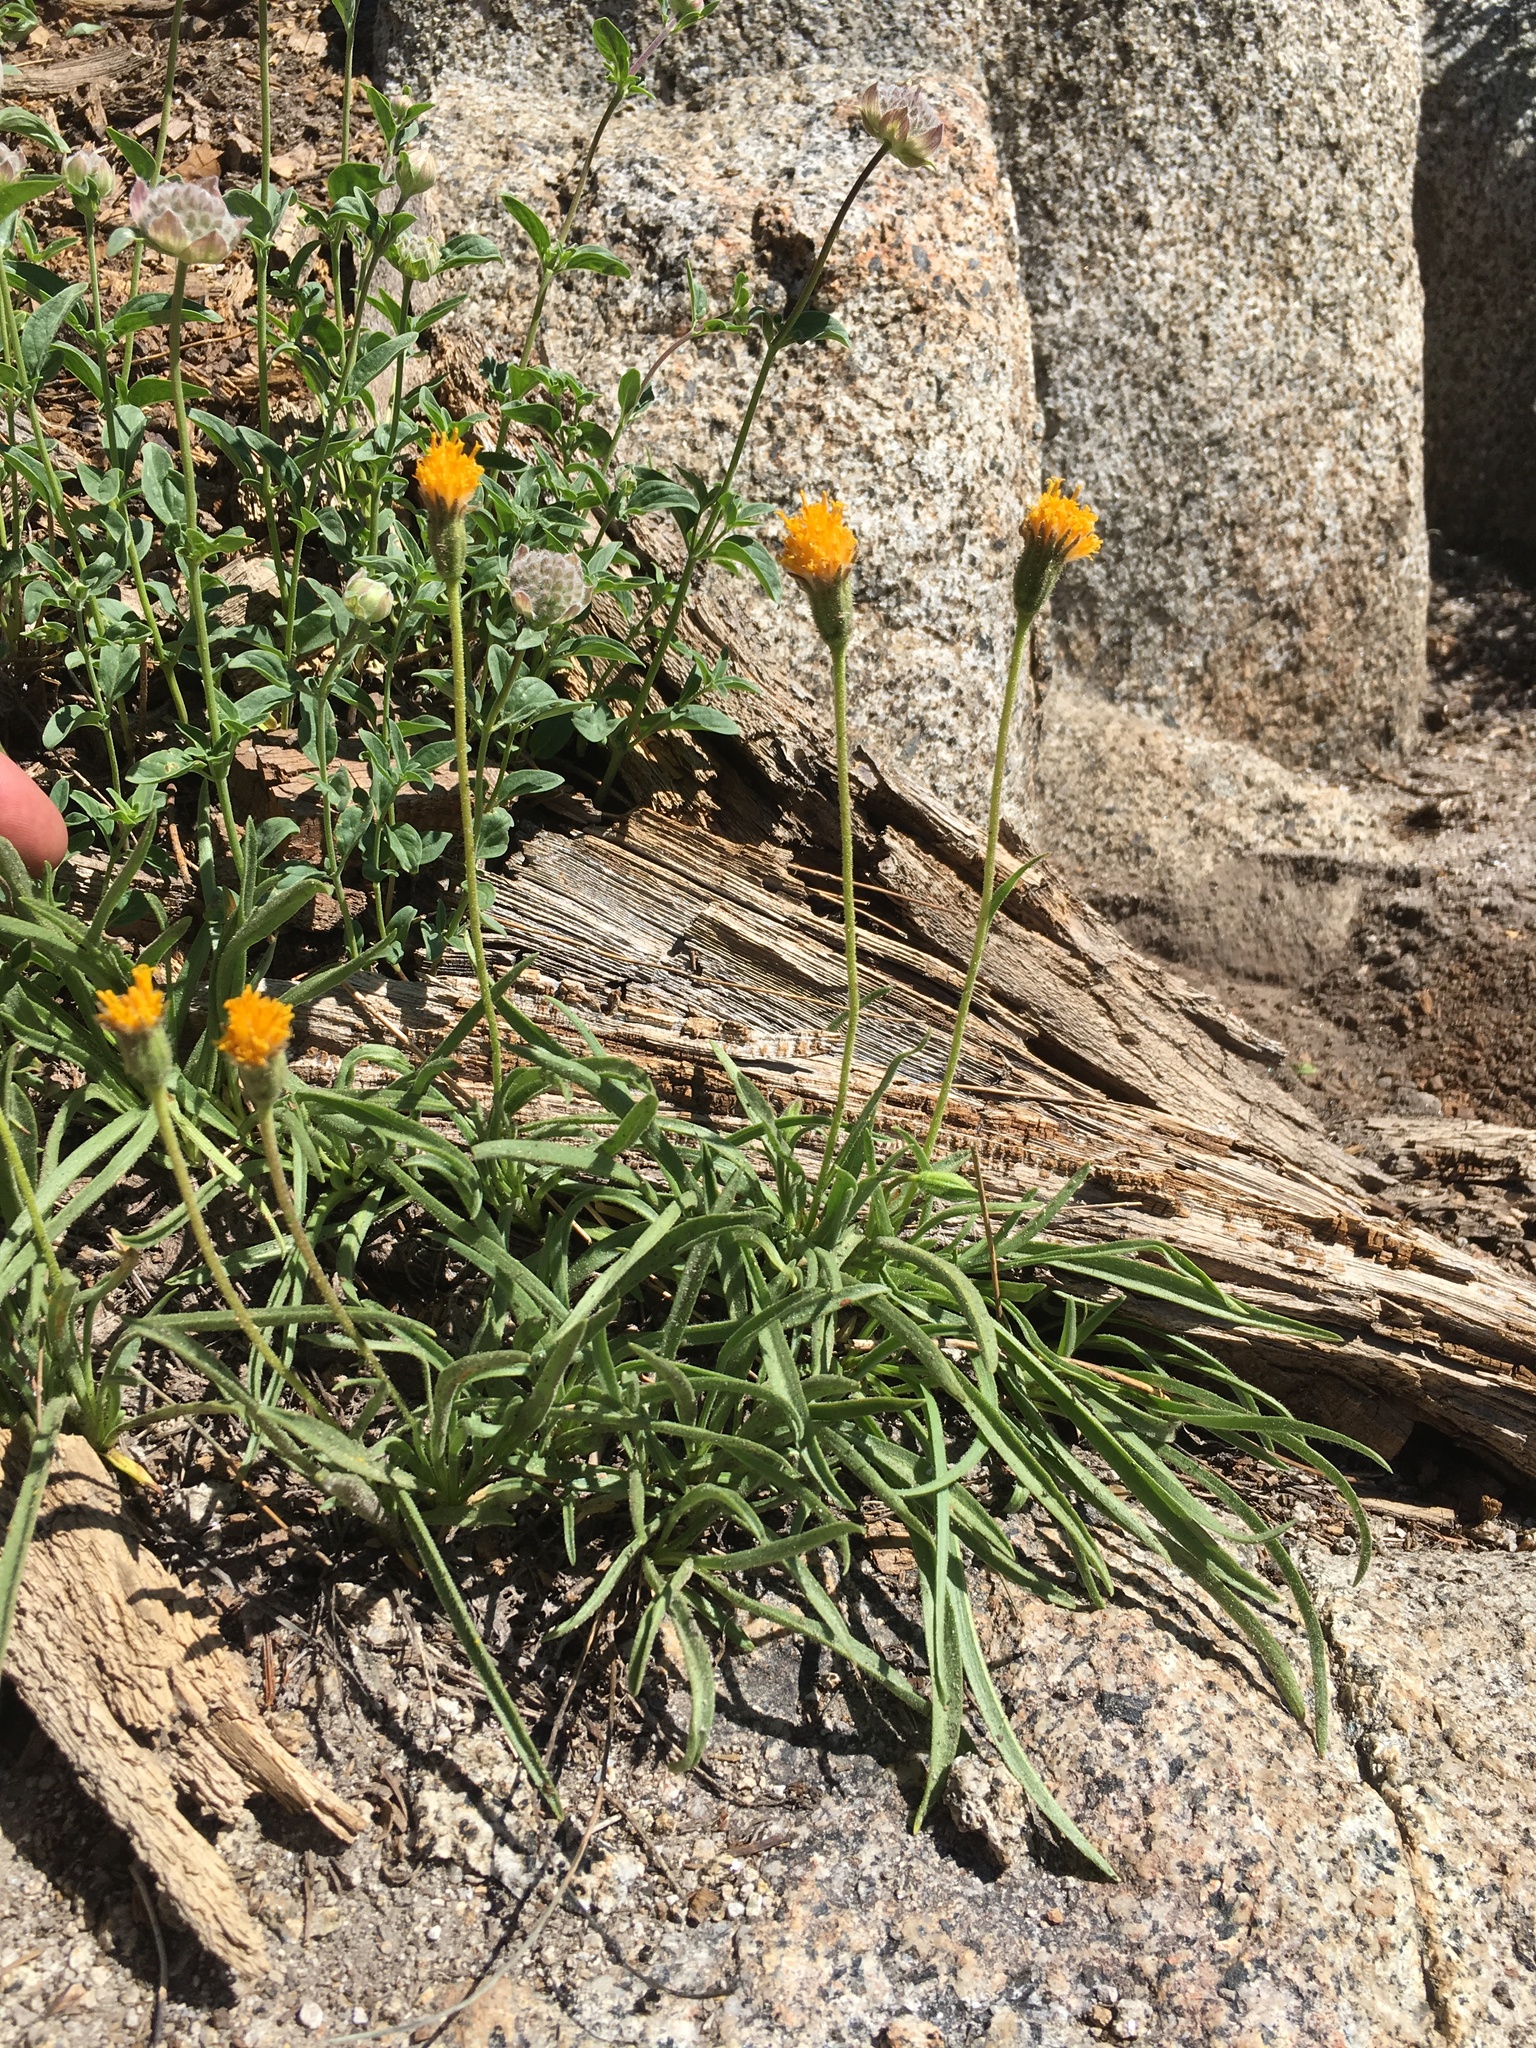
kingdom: Plantae
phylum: Tracheophyta
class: Magnoliopsida
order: Asterales
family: Asteraceae
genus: Raillardella
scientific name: Raillardella scaposa
